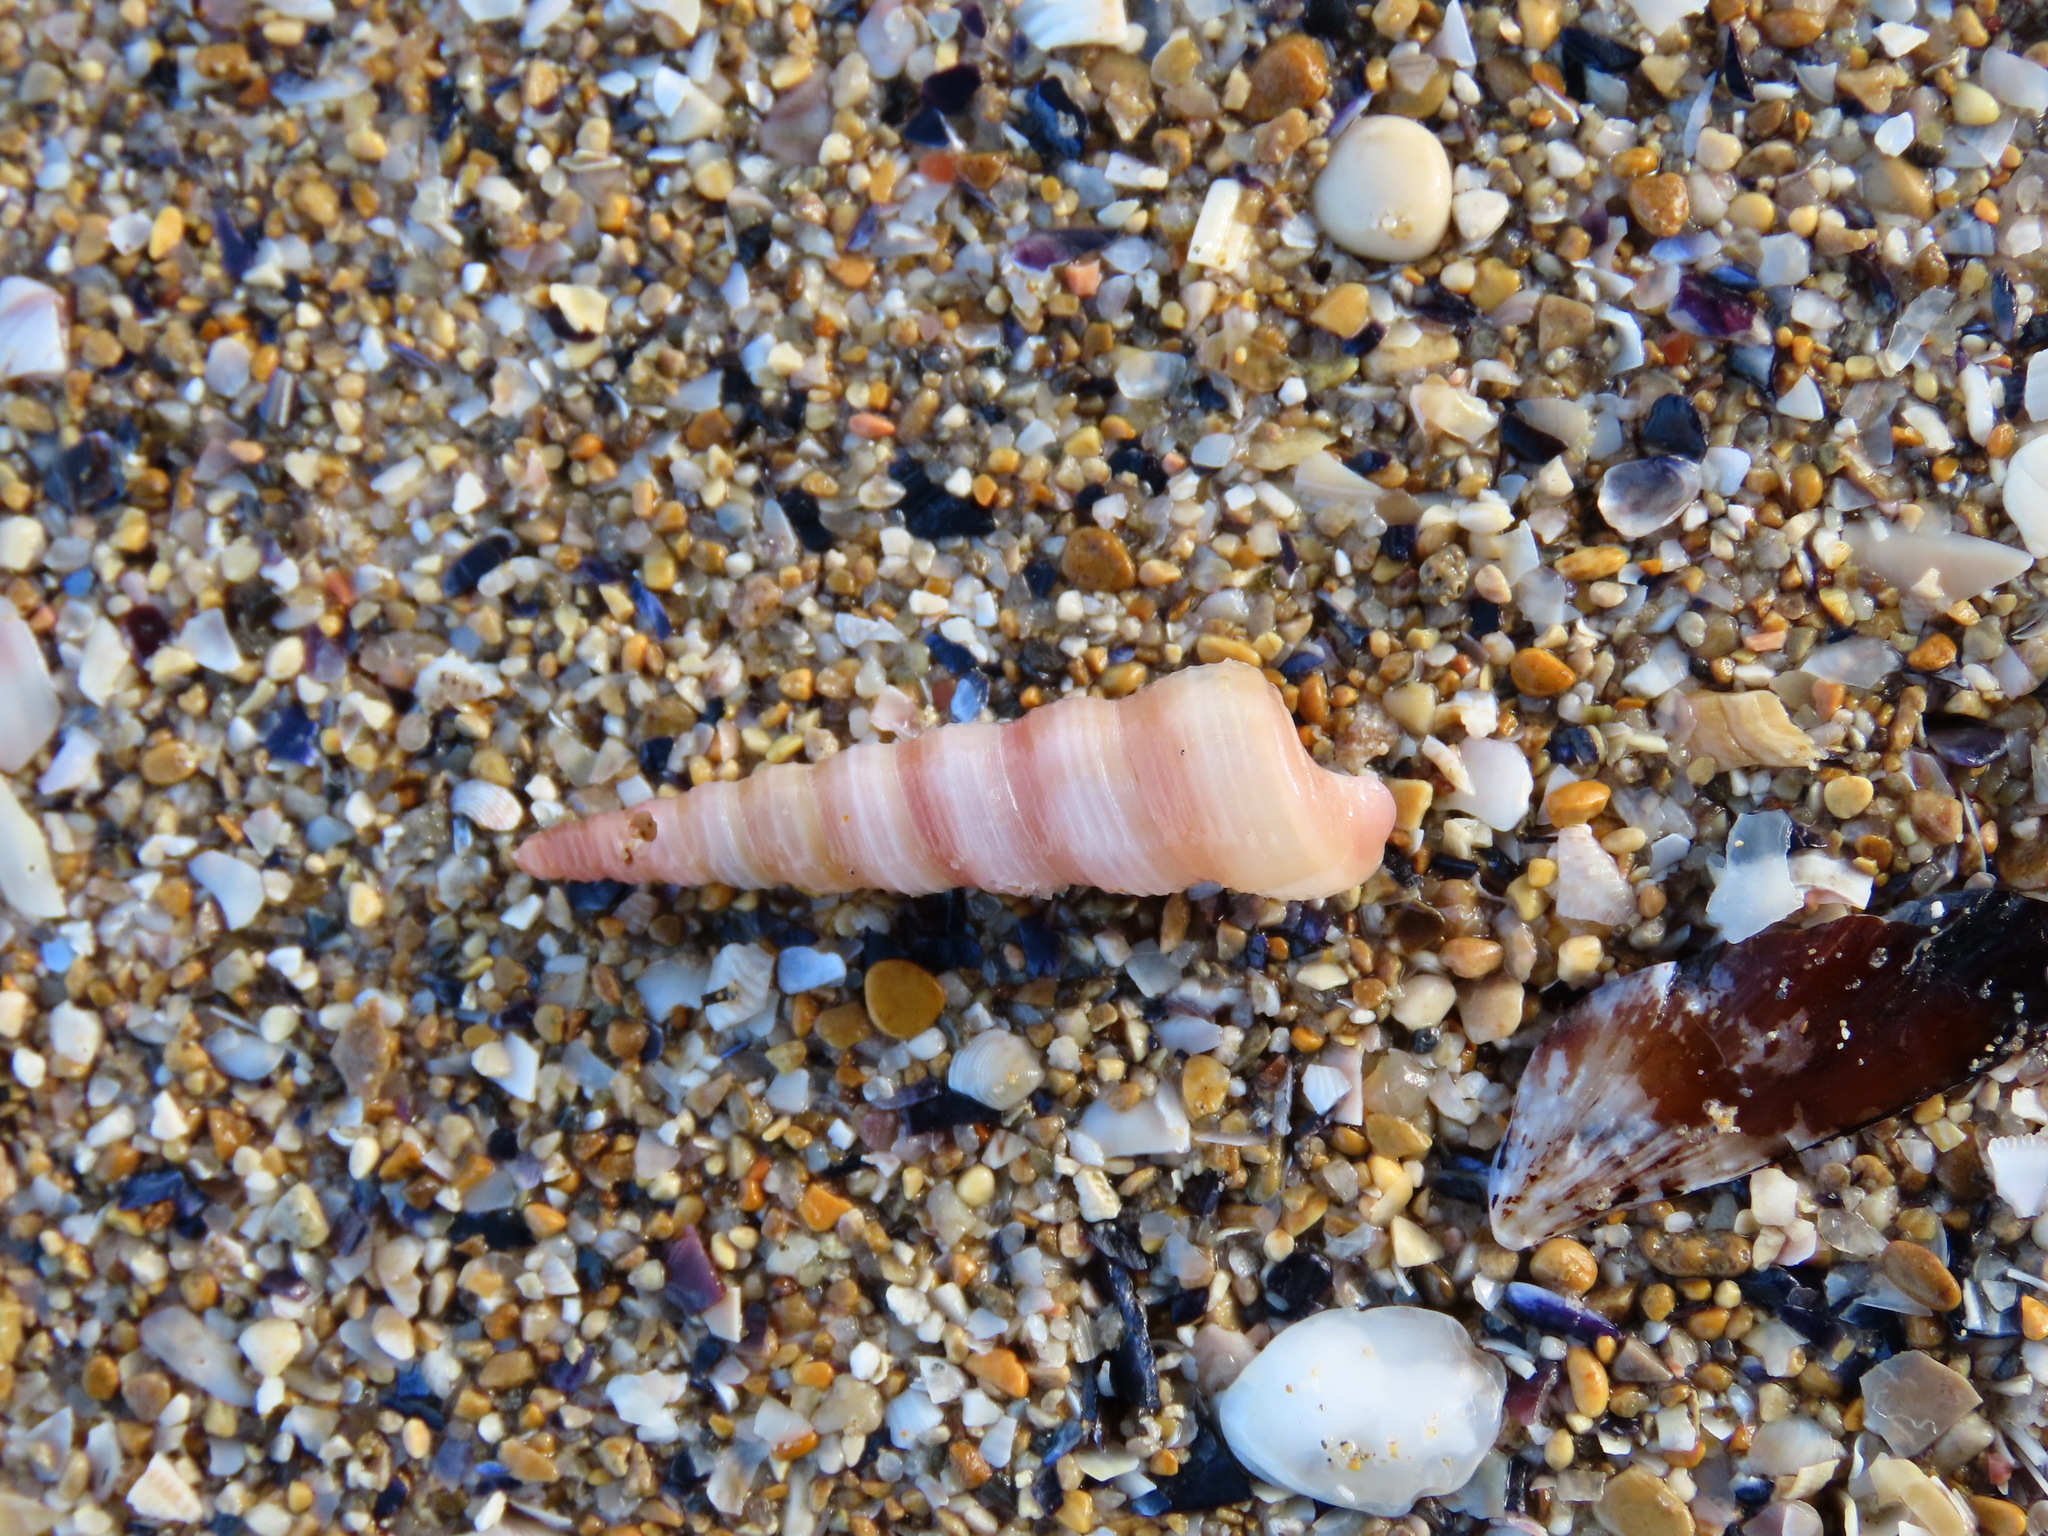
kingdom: Animalia
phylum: Mollusca
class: Gastropoda
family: Turritellidae
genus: Turritellinella
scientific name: Turritellinella tricarinata
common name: Auger shell
